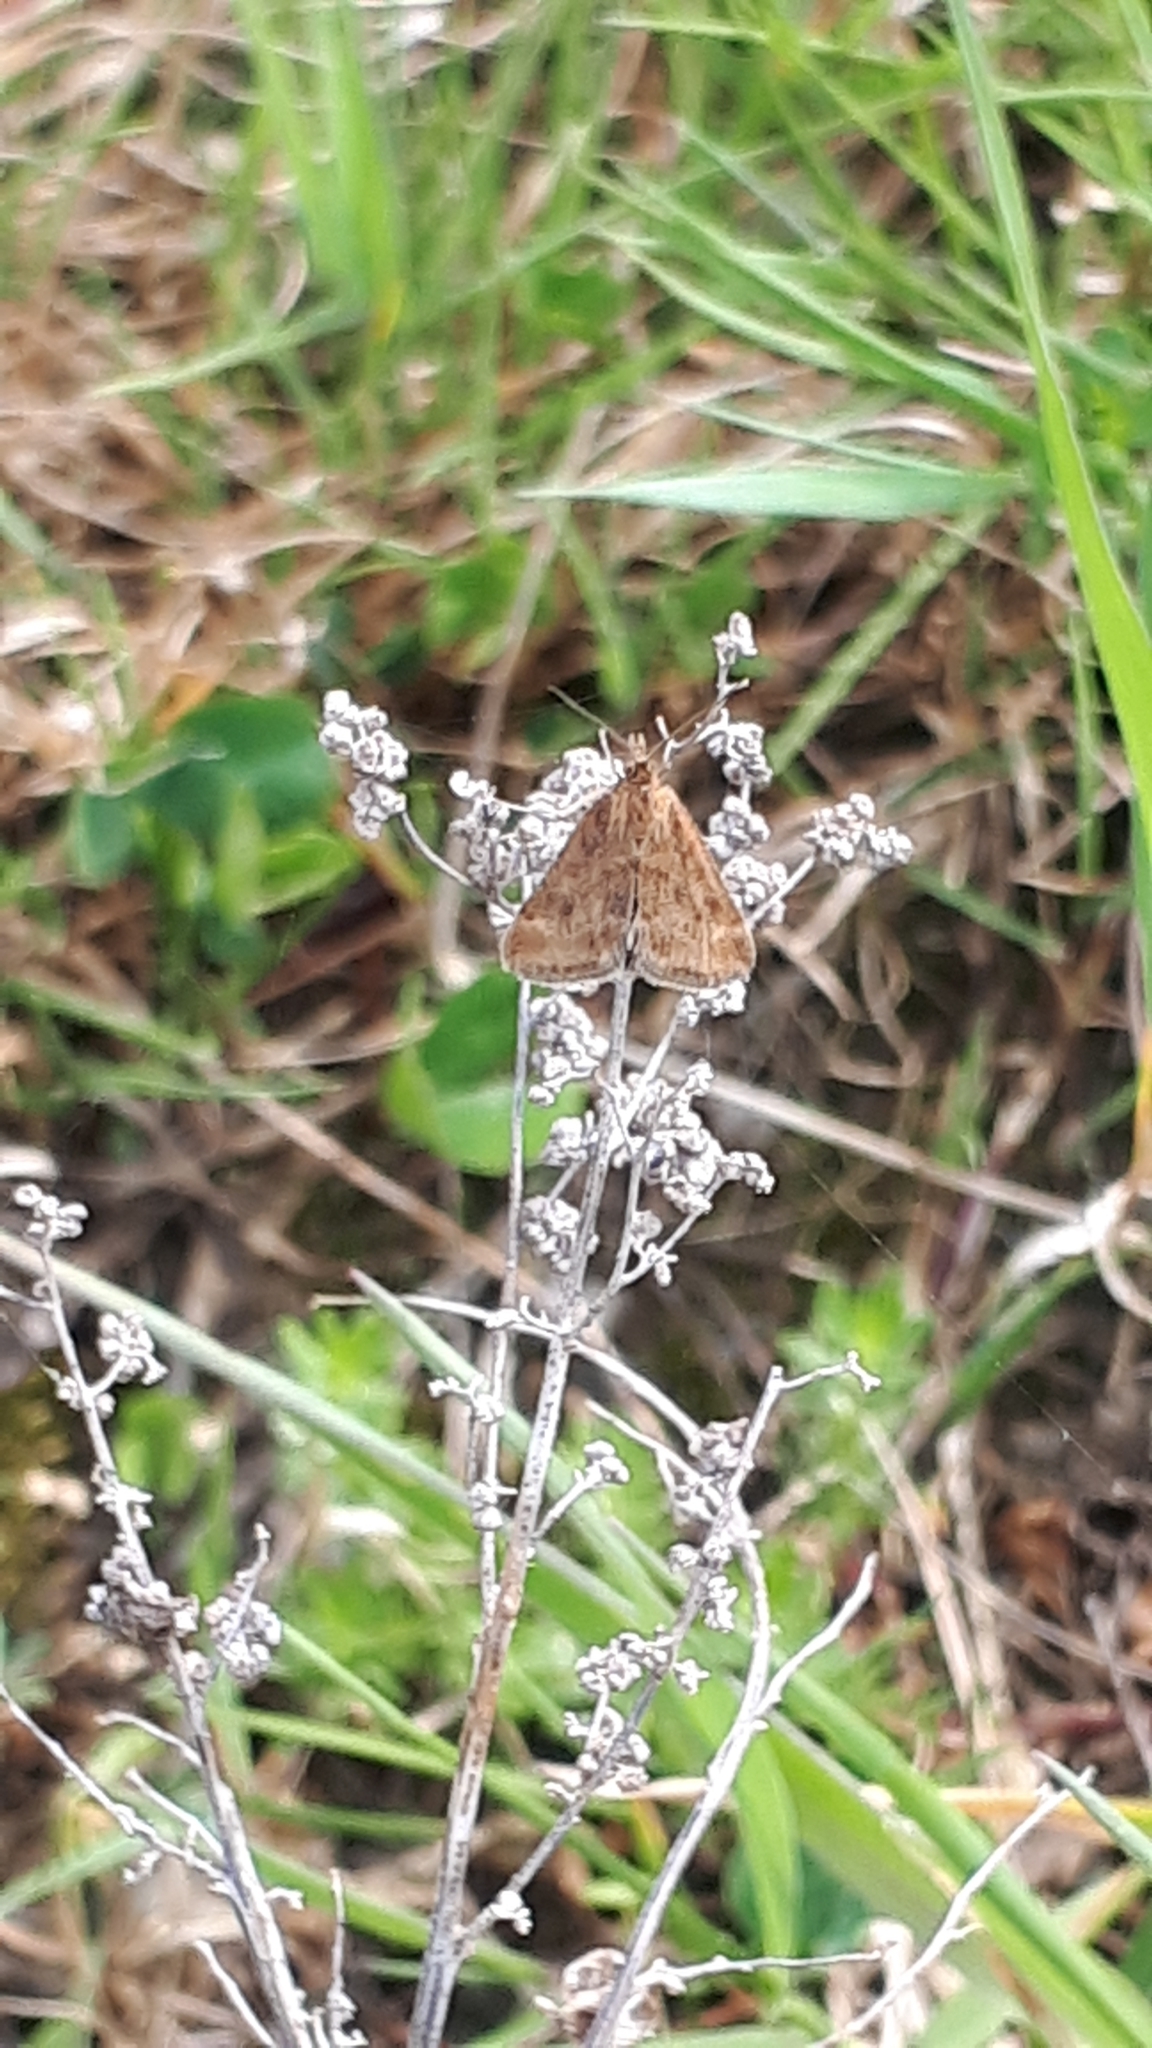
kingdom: Animalia
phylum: Arthropoda
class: Insecta
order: Lepidoptera
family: Crambidae
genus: Pyrausta
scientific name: Pyrausta despicata
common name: Straw-barred pearl
